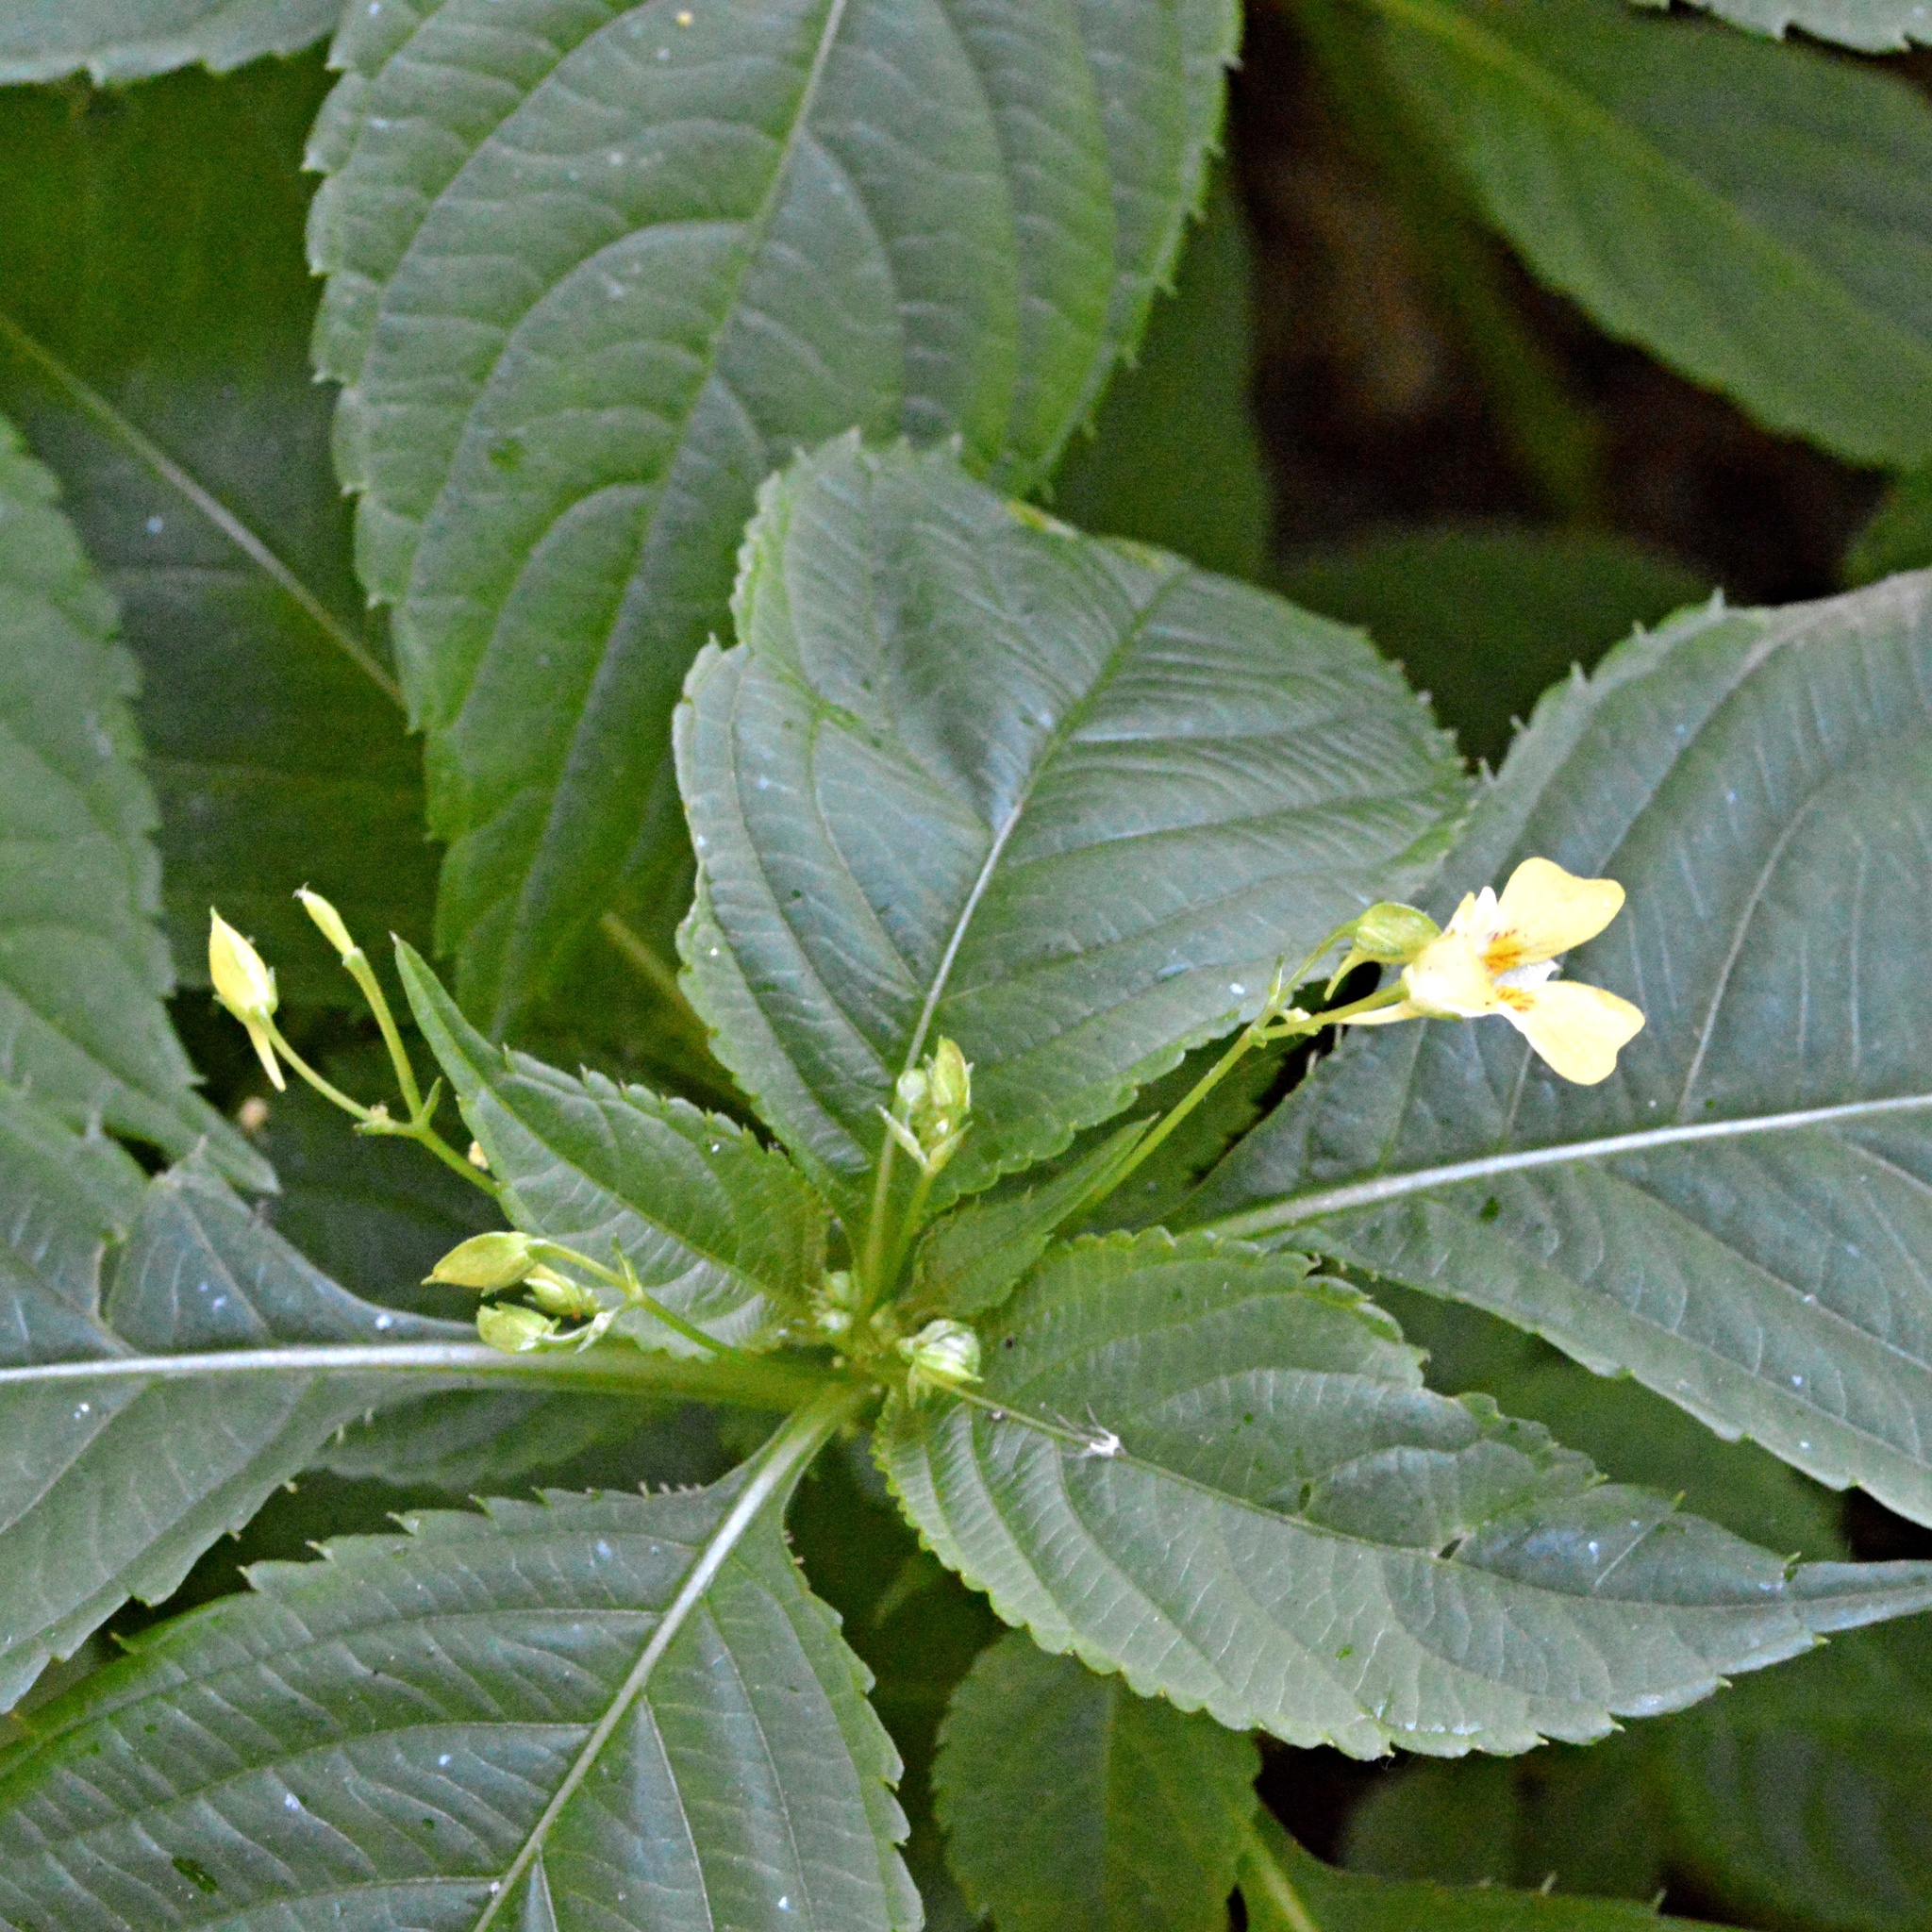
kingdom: Plantae
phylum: Tracheophyta
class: Magnoliopsida
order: Ericales
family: Balsaminaceae
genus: Impatiens
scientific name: Impatiens parviflora
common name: Small balsam
